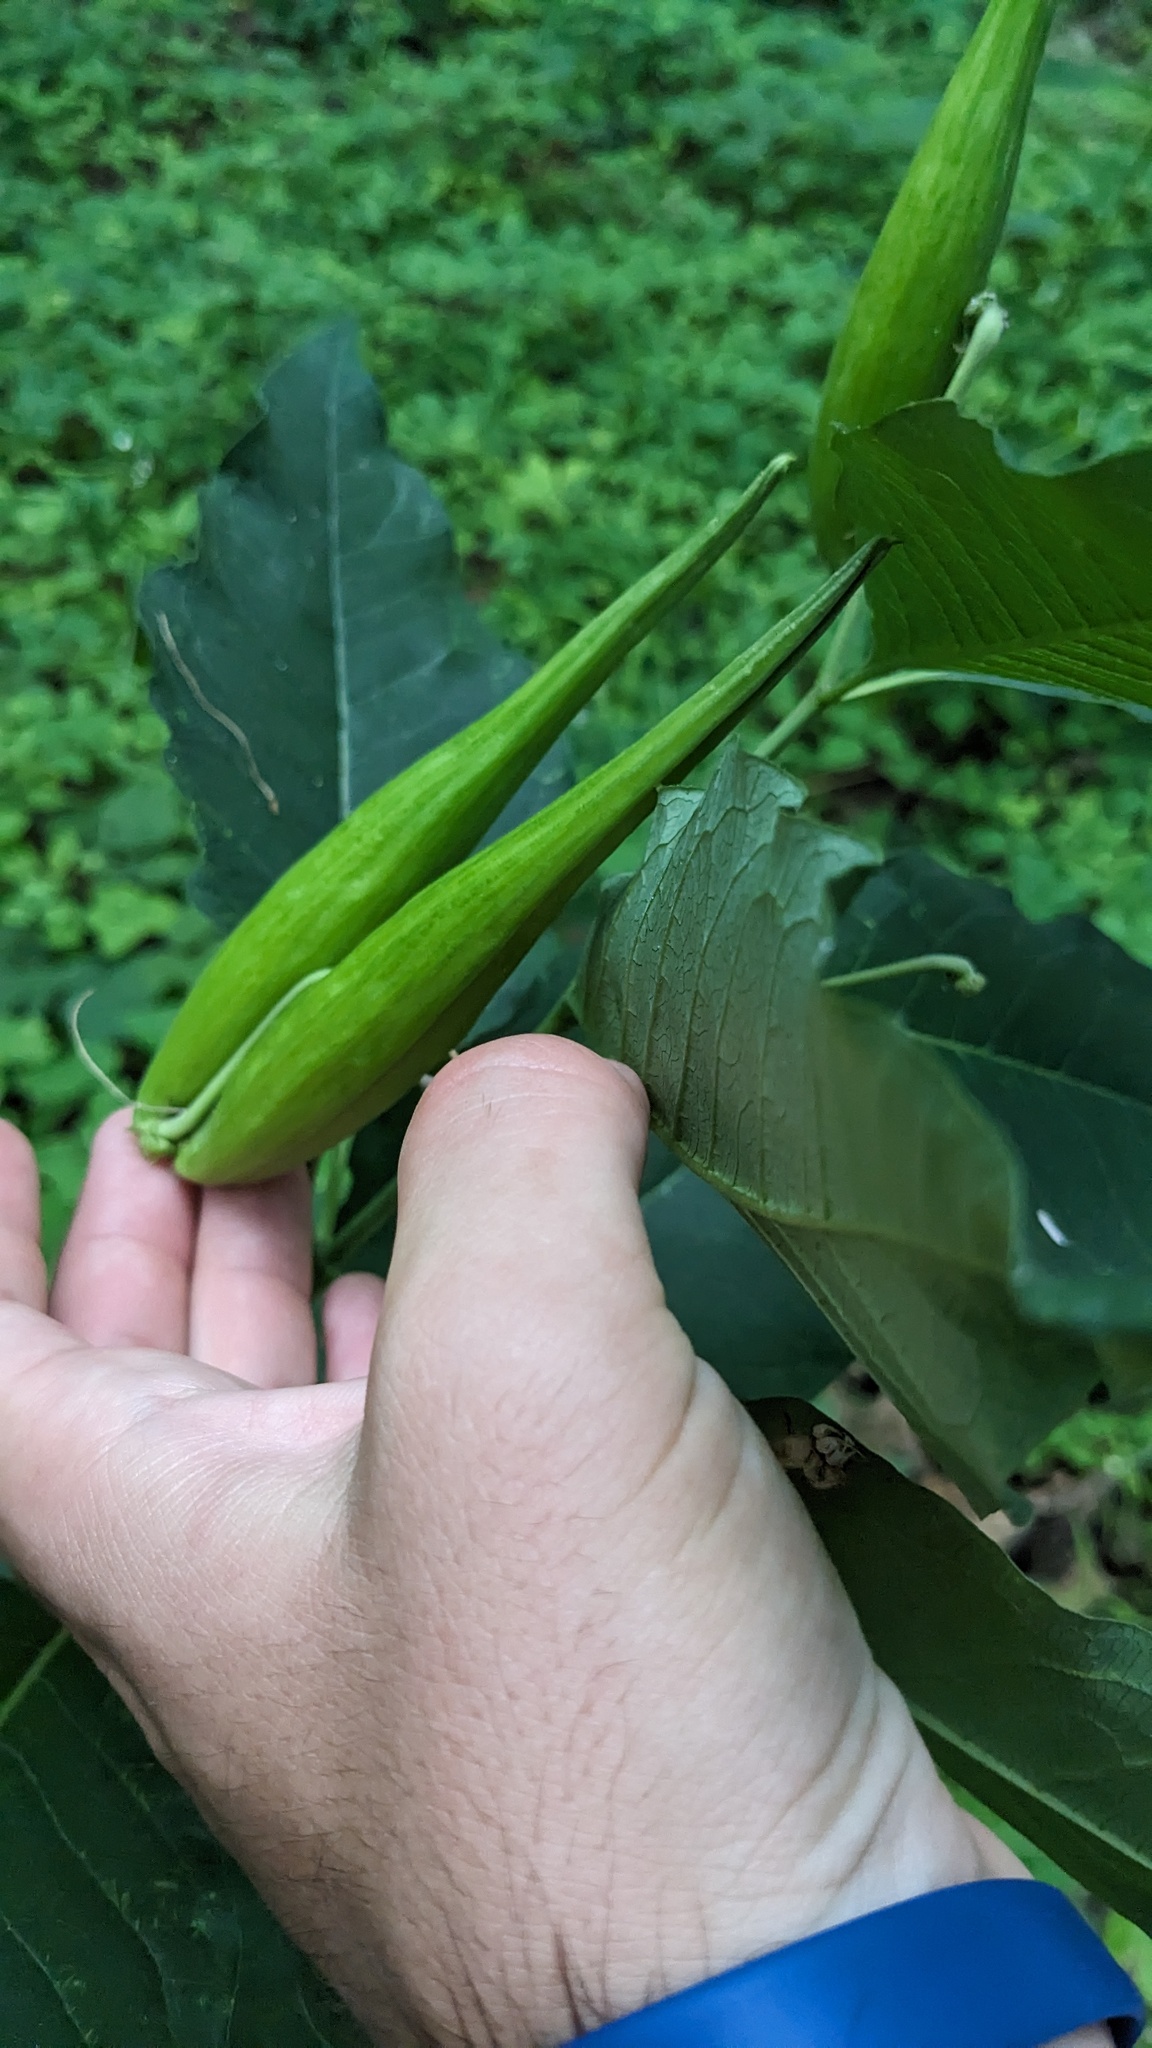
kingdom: Plantae
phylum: Tracheophyta
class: Magnoliopsida
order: Gentianales
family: Apocynaceae
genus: Asclepias
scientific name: Asclepias exaltata
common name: Poke milkweed
